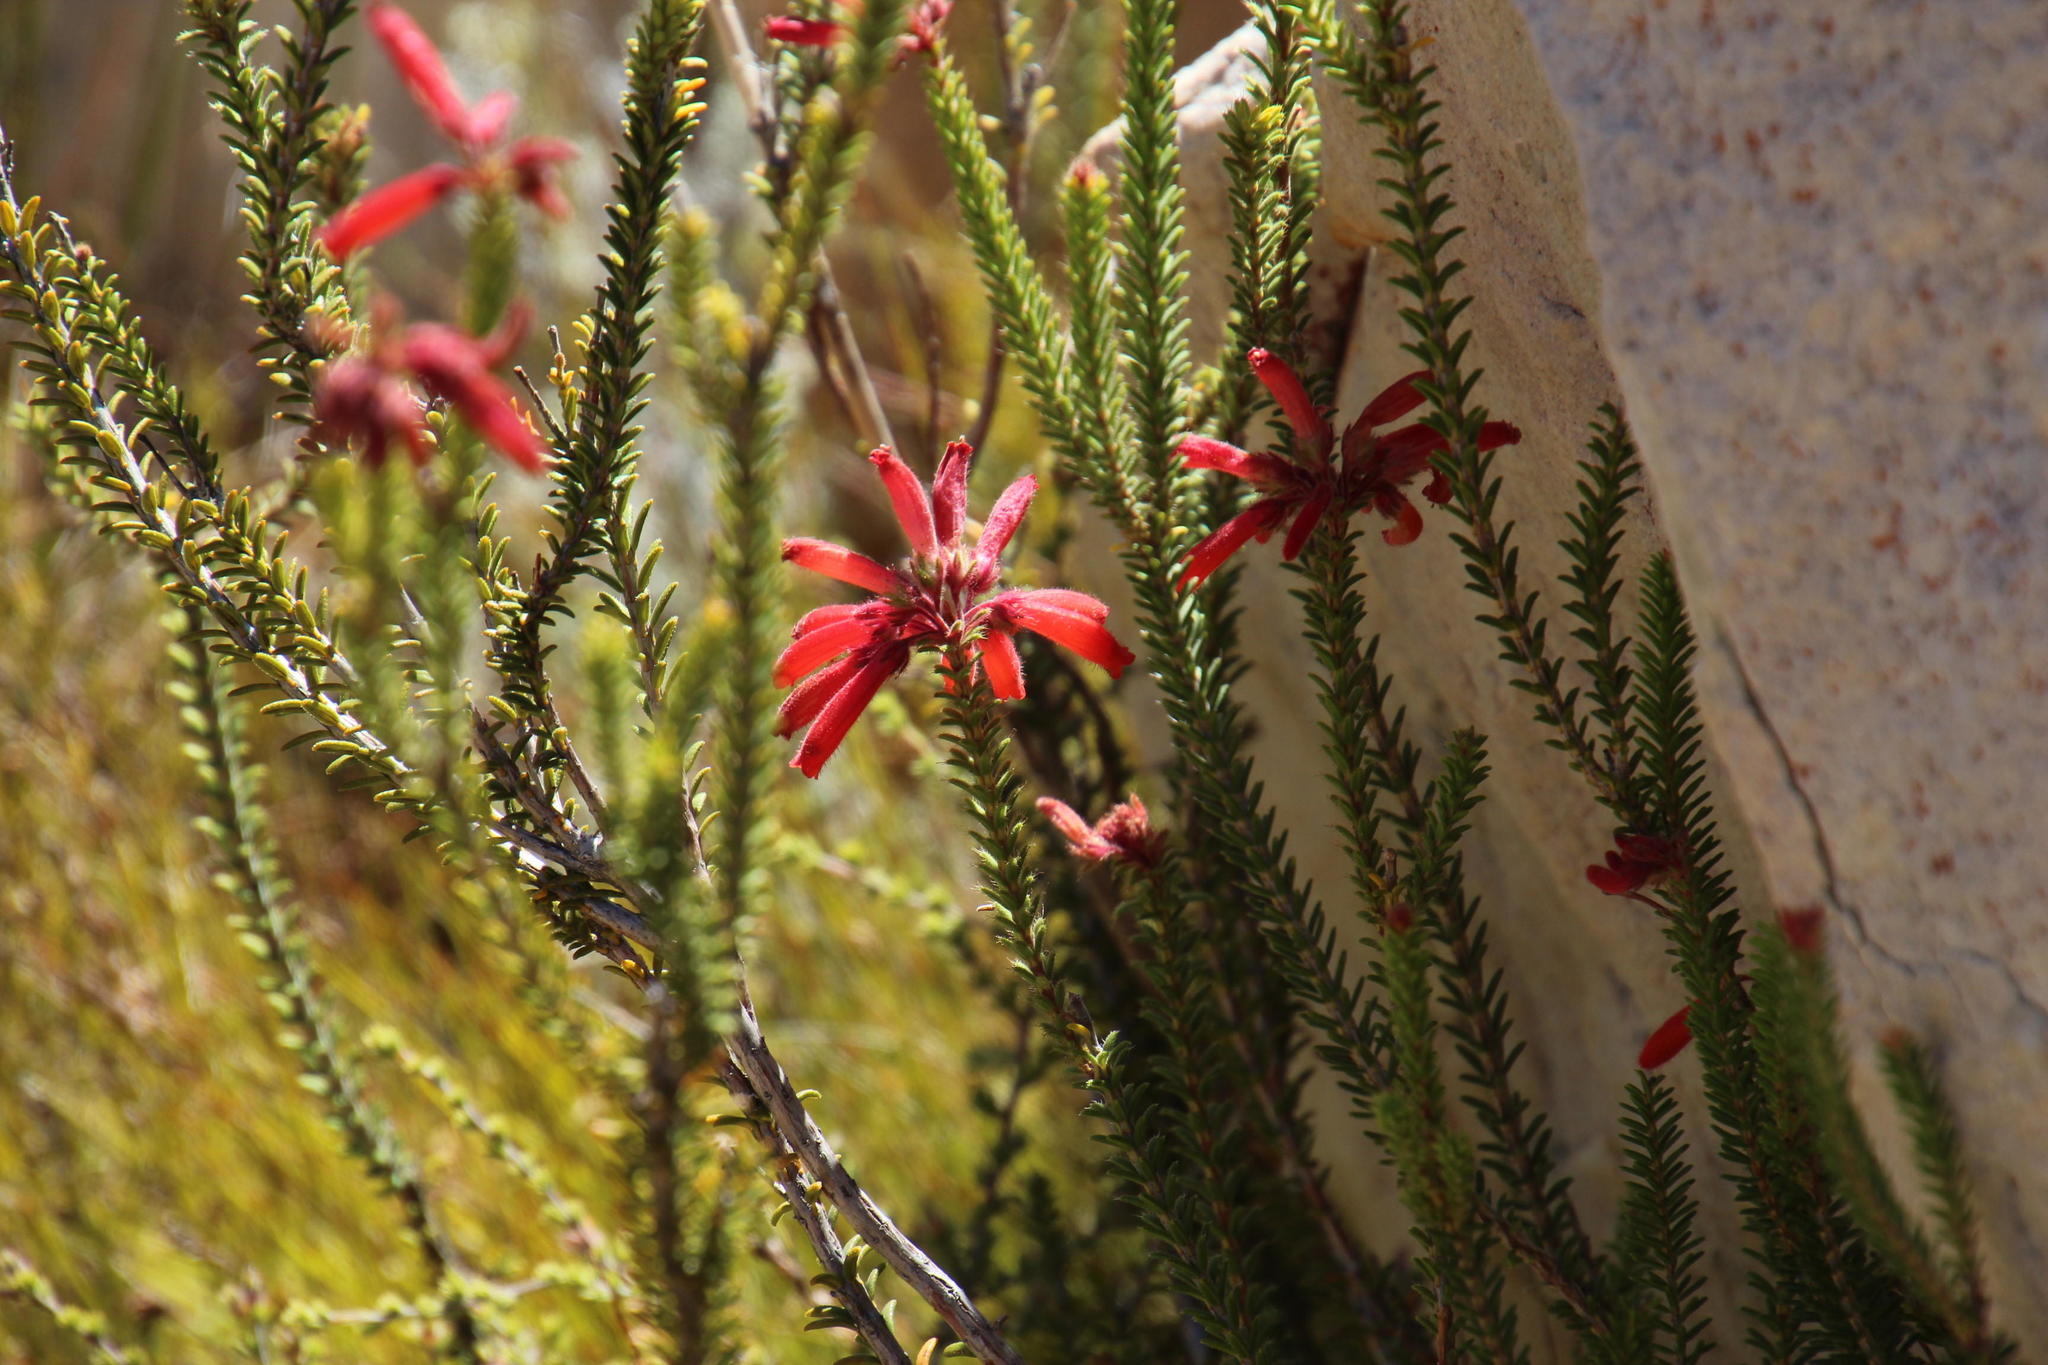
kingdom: Plantae
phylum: Tracheophyta
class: Magnoliopsida
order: Ericales
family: Ericaceae
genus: Erica
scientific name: Erica cerinthoides
